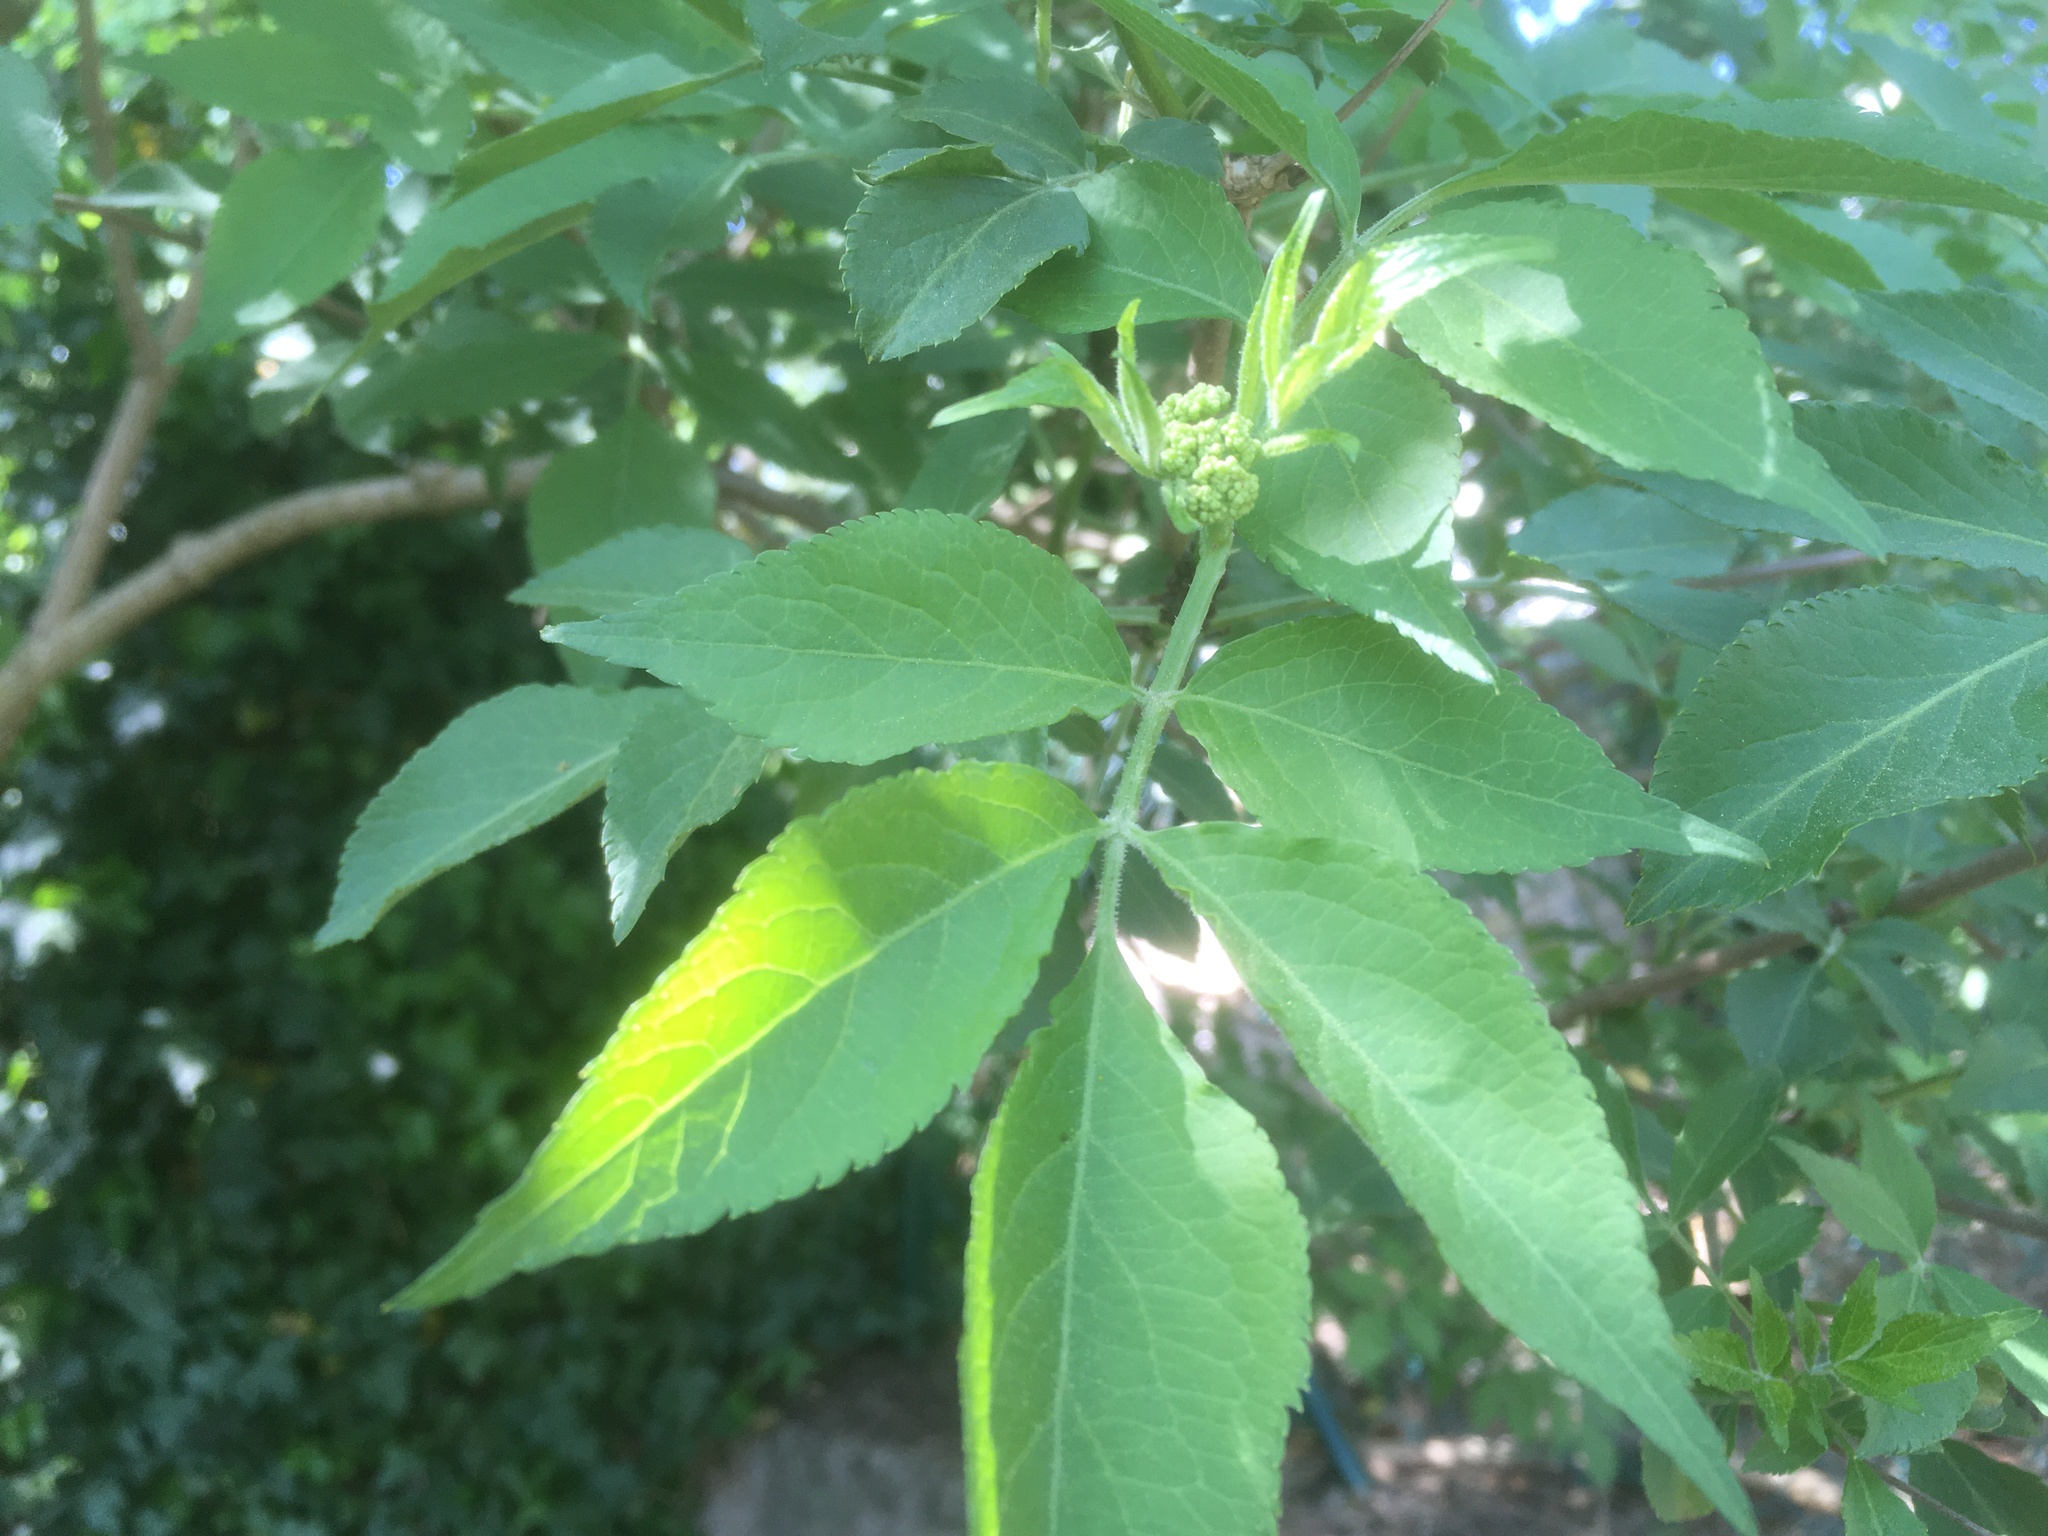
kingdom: Plantae
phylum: Tracheophyta
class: Magnoliopsida
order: Dipsacales
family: Viburnaceae
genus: Sambucus
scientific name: Sambucus nigra
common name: Elder
